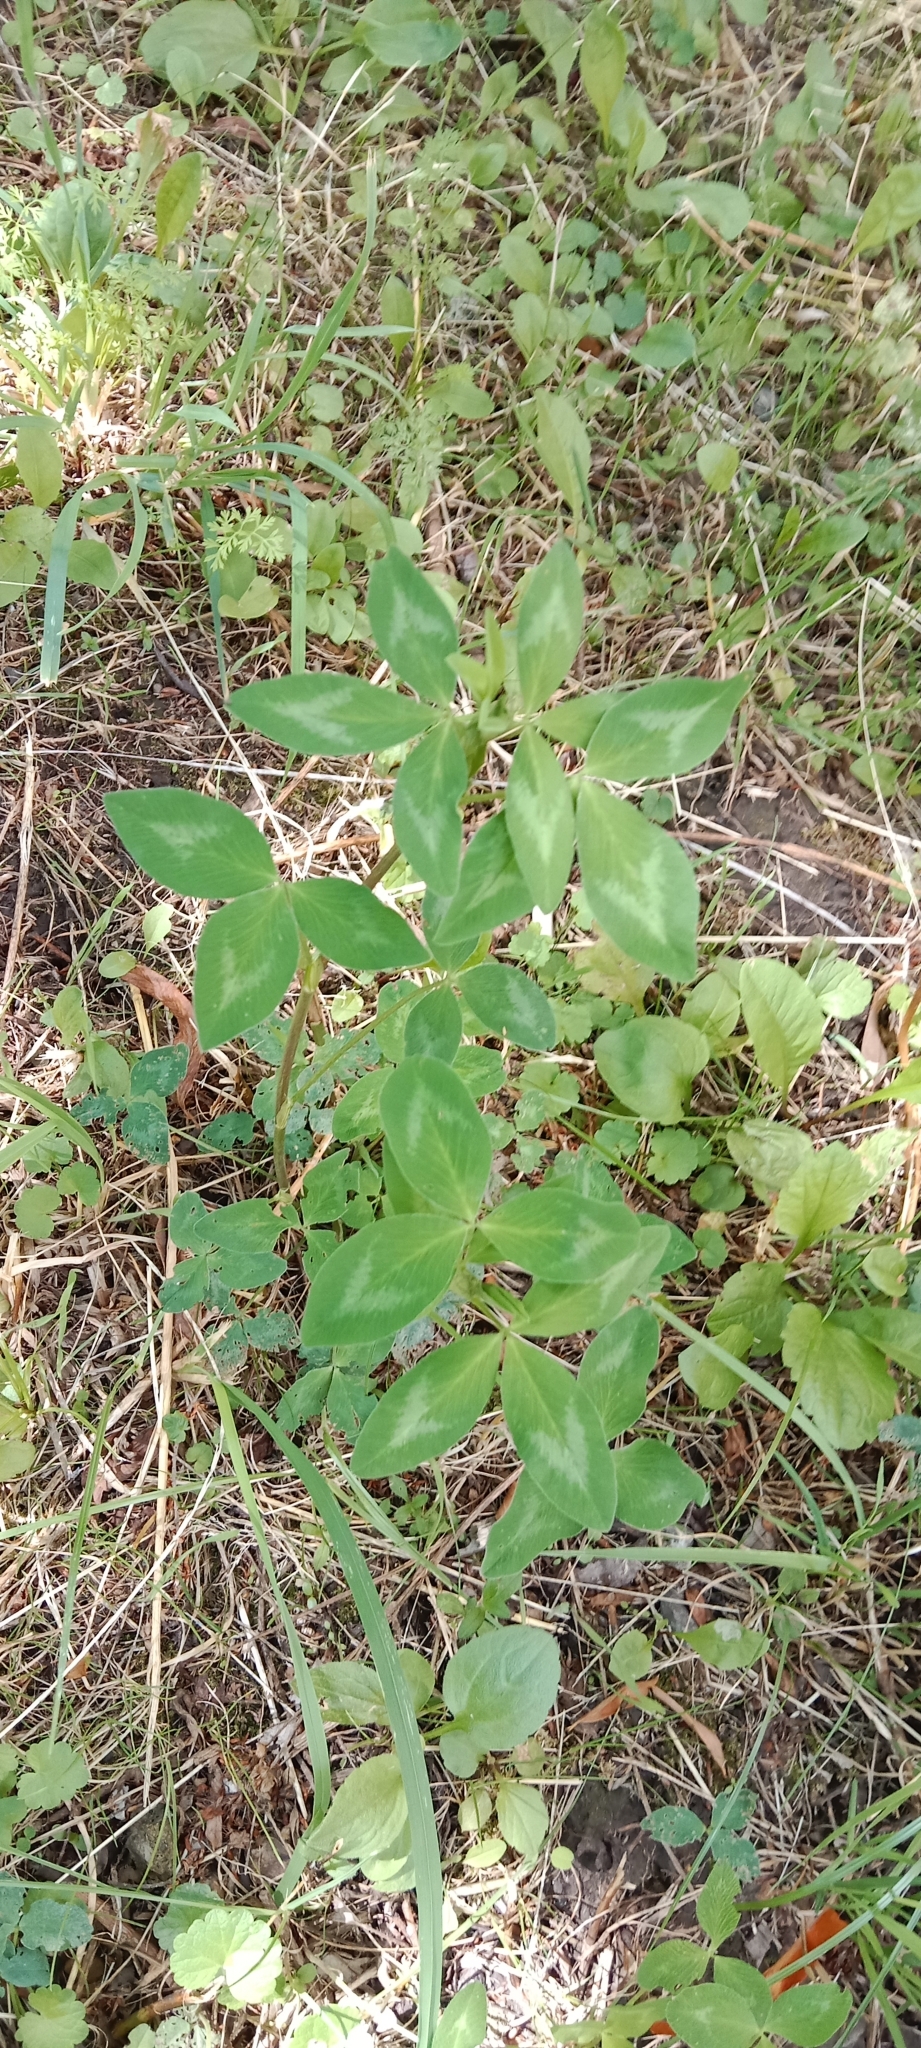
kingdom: Plantae
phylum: Tracheophyta
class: Magnoliopsida
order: Fabales
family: Fabaceae
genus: Trifolium
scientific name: Trifolium pratense
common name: Red clover
